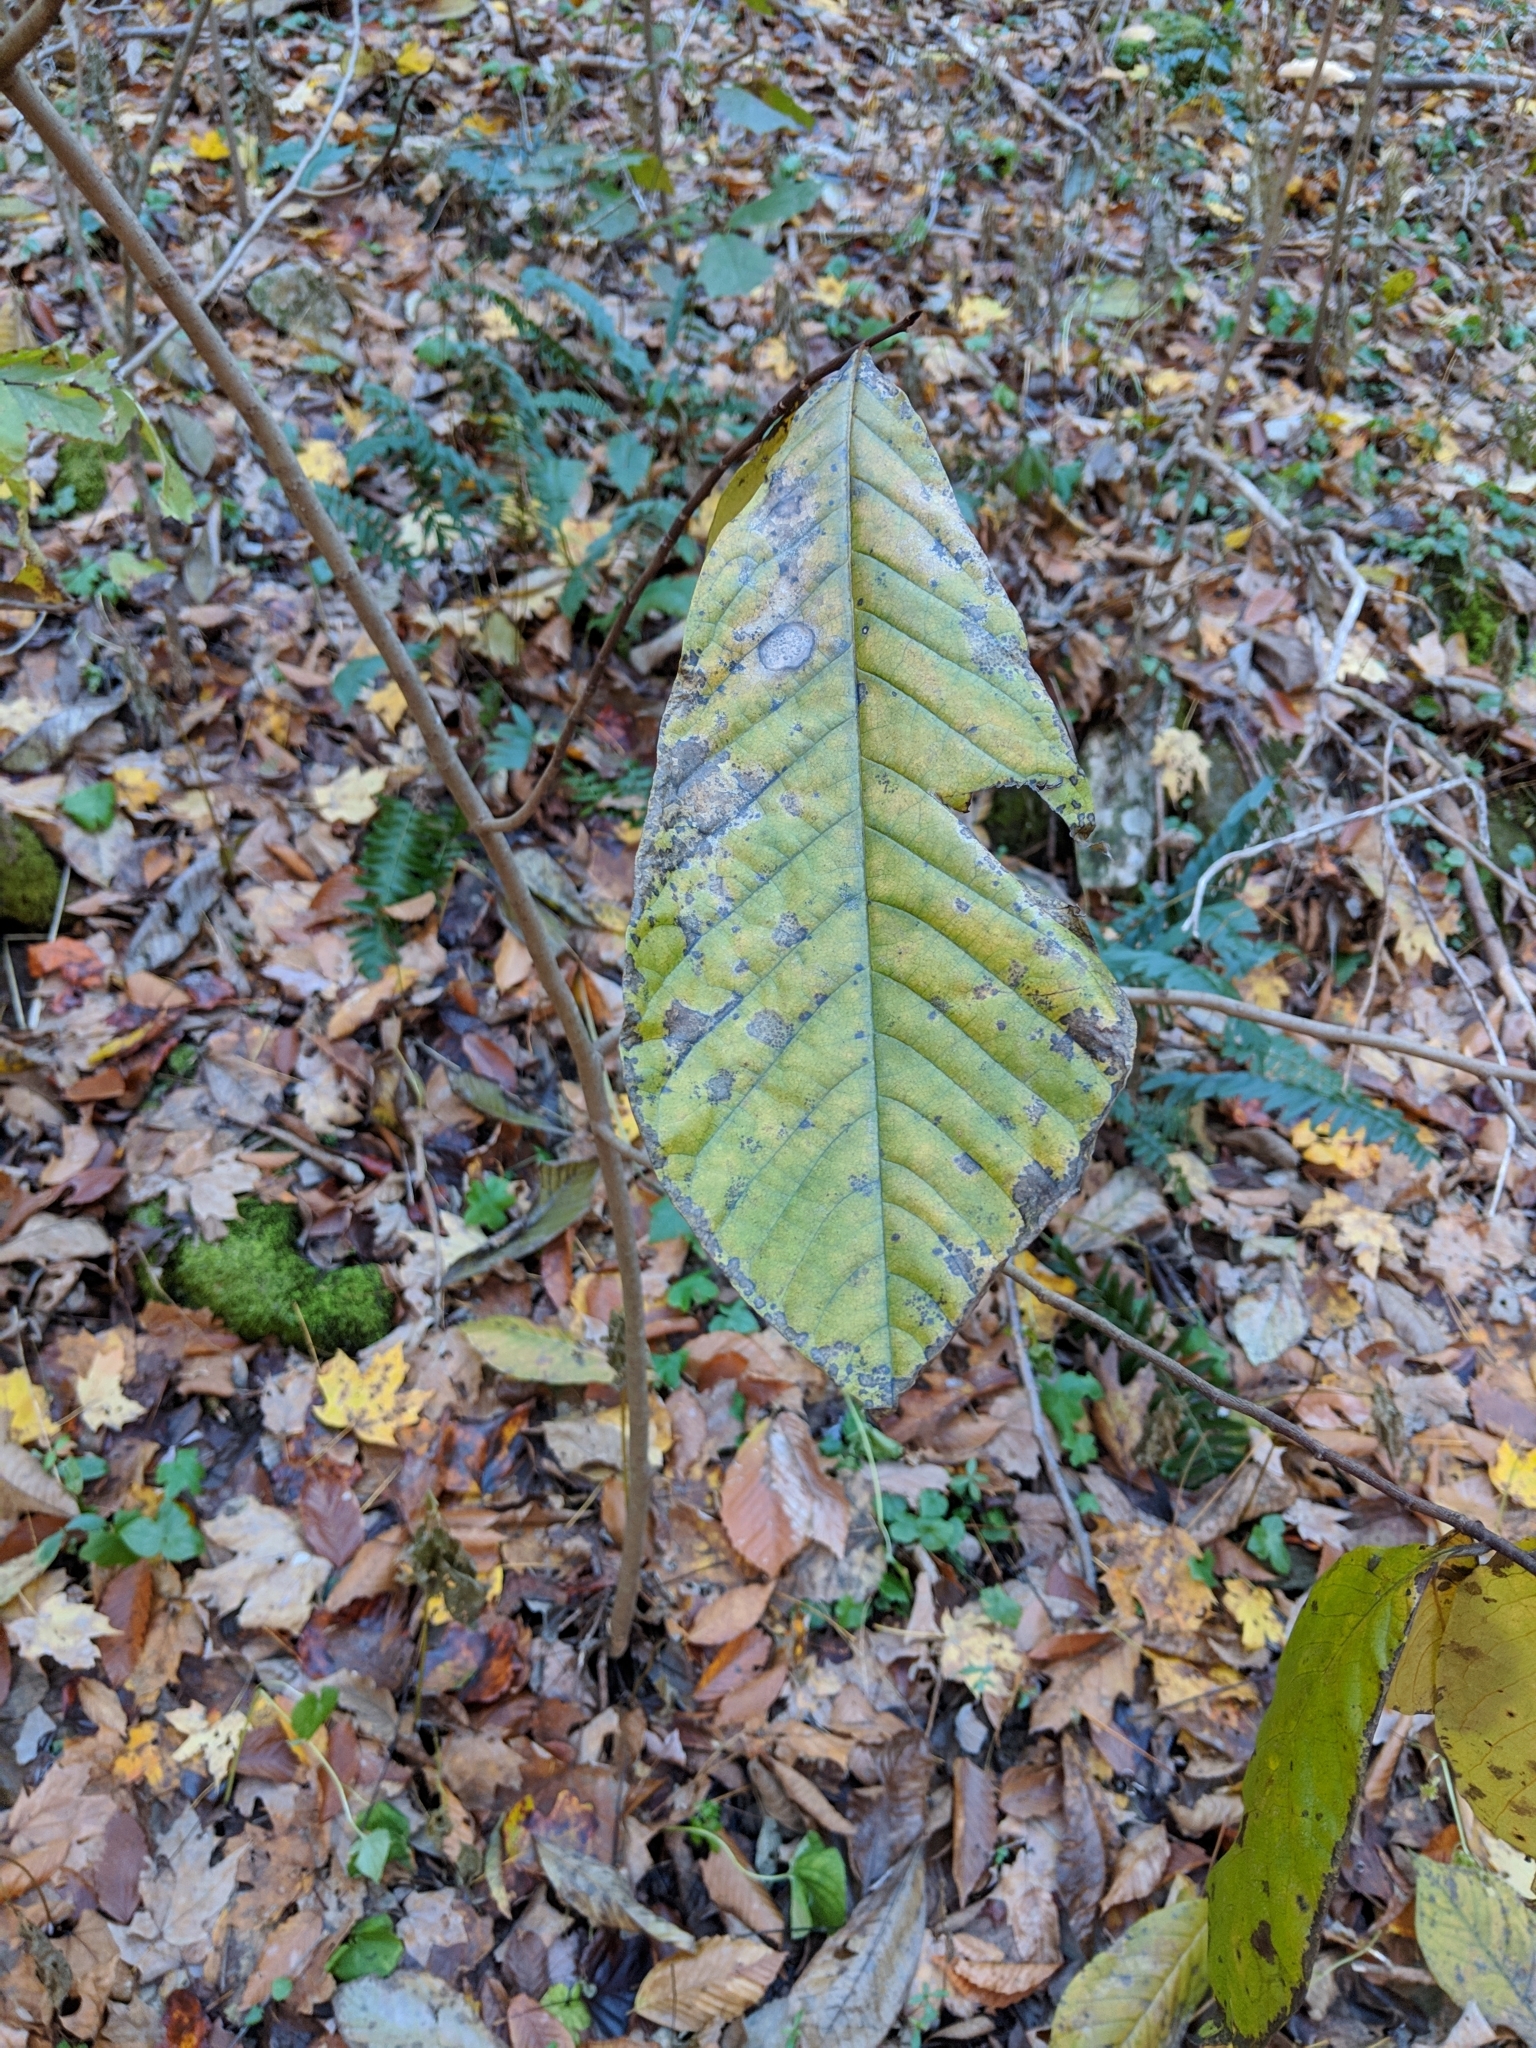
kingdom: Plantae
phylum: Tracheophyta
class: Magnoliopsida
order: Magnoliales
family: Annonaceae
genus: Asimina
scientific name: Asimina triloba
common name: Dog-banana
